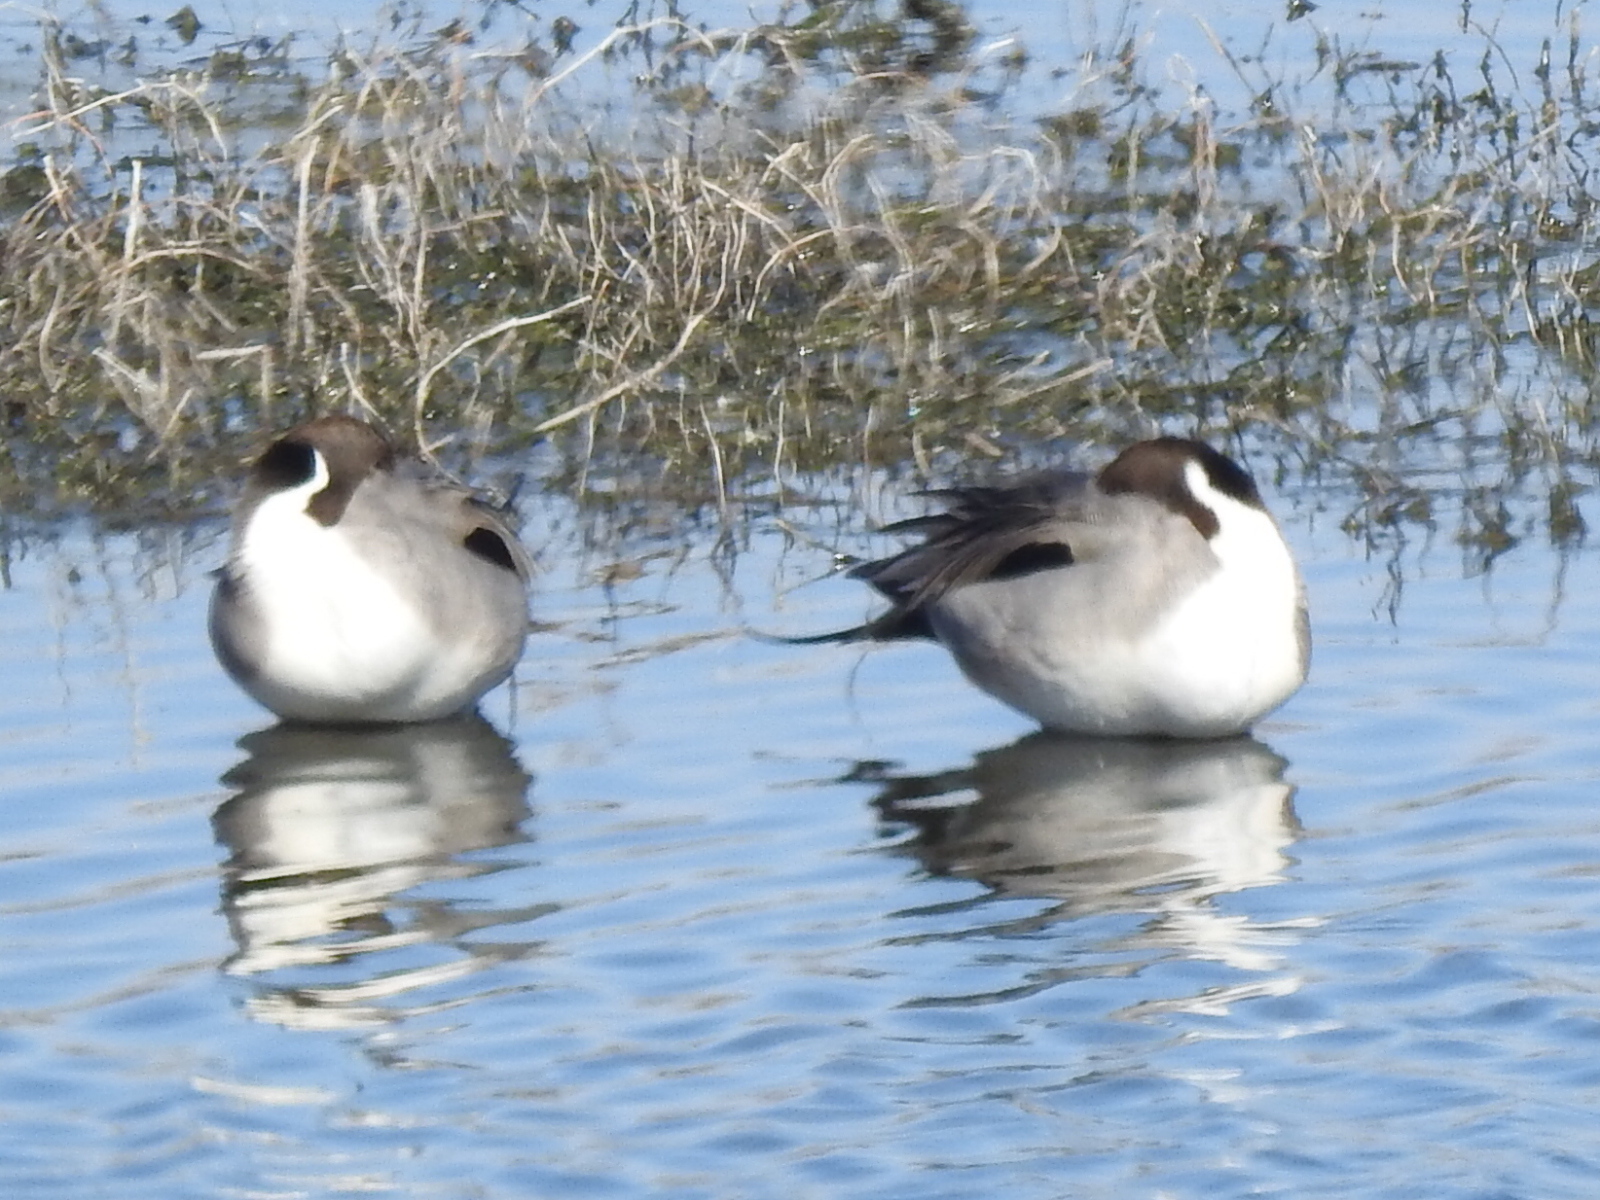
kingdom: Animalia
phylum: Chordata
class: Aves
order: Anseriformes
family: Anatidae
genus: Anas
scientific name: Anas acuta
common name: Northern pintail
